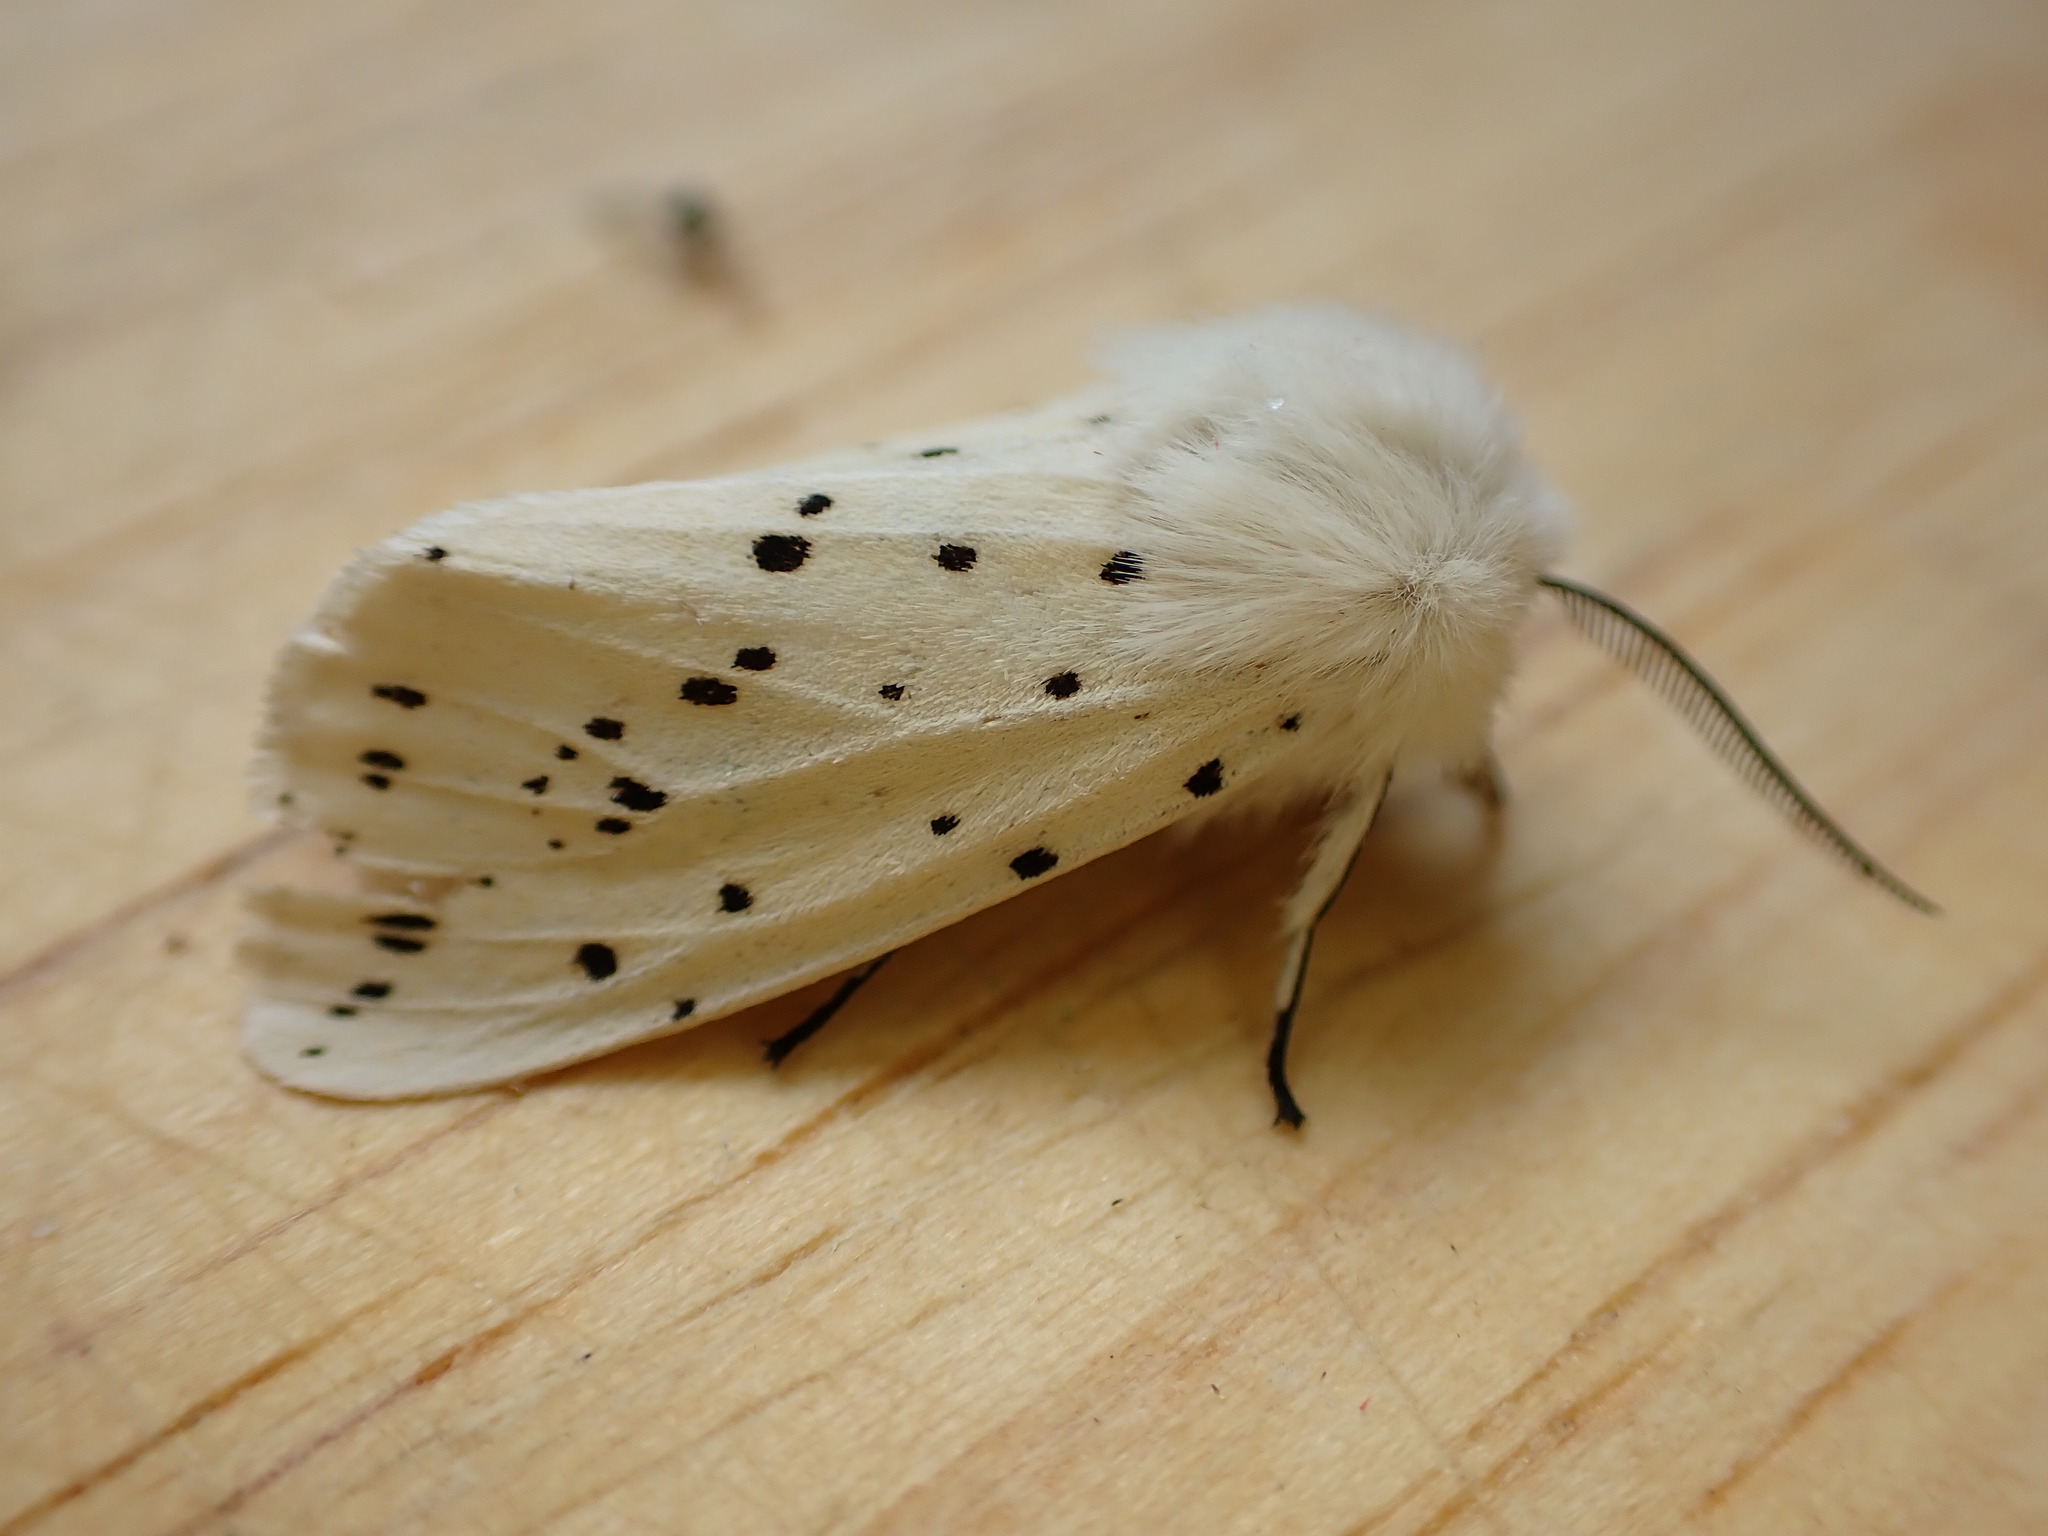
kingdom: Animalia
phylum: Arthropoda
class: Insecta
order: Lepidoptera
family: Erebidae
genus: Spilosoma
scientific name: Spilosoma lubricipeda
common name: White ermine
